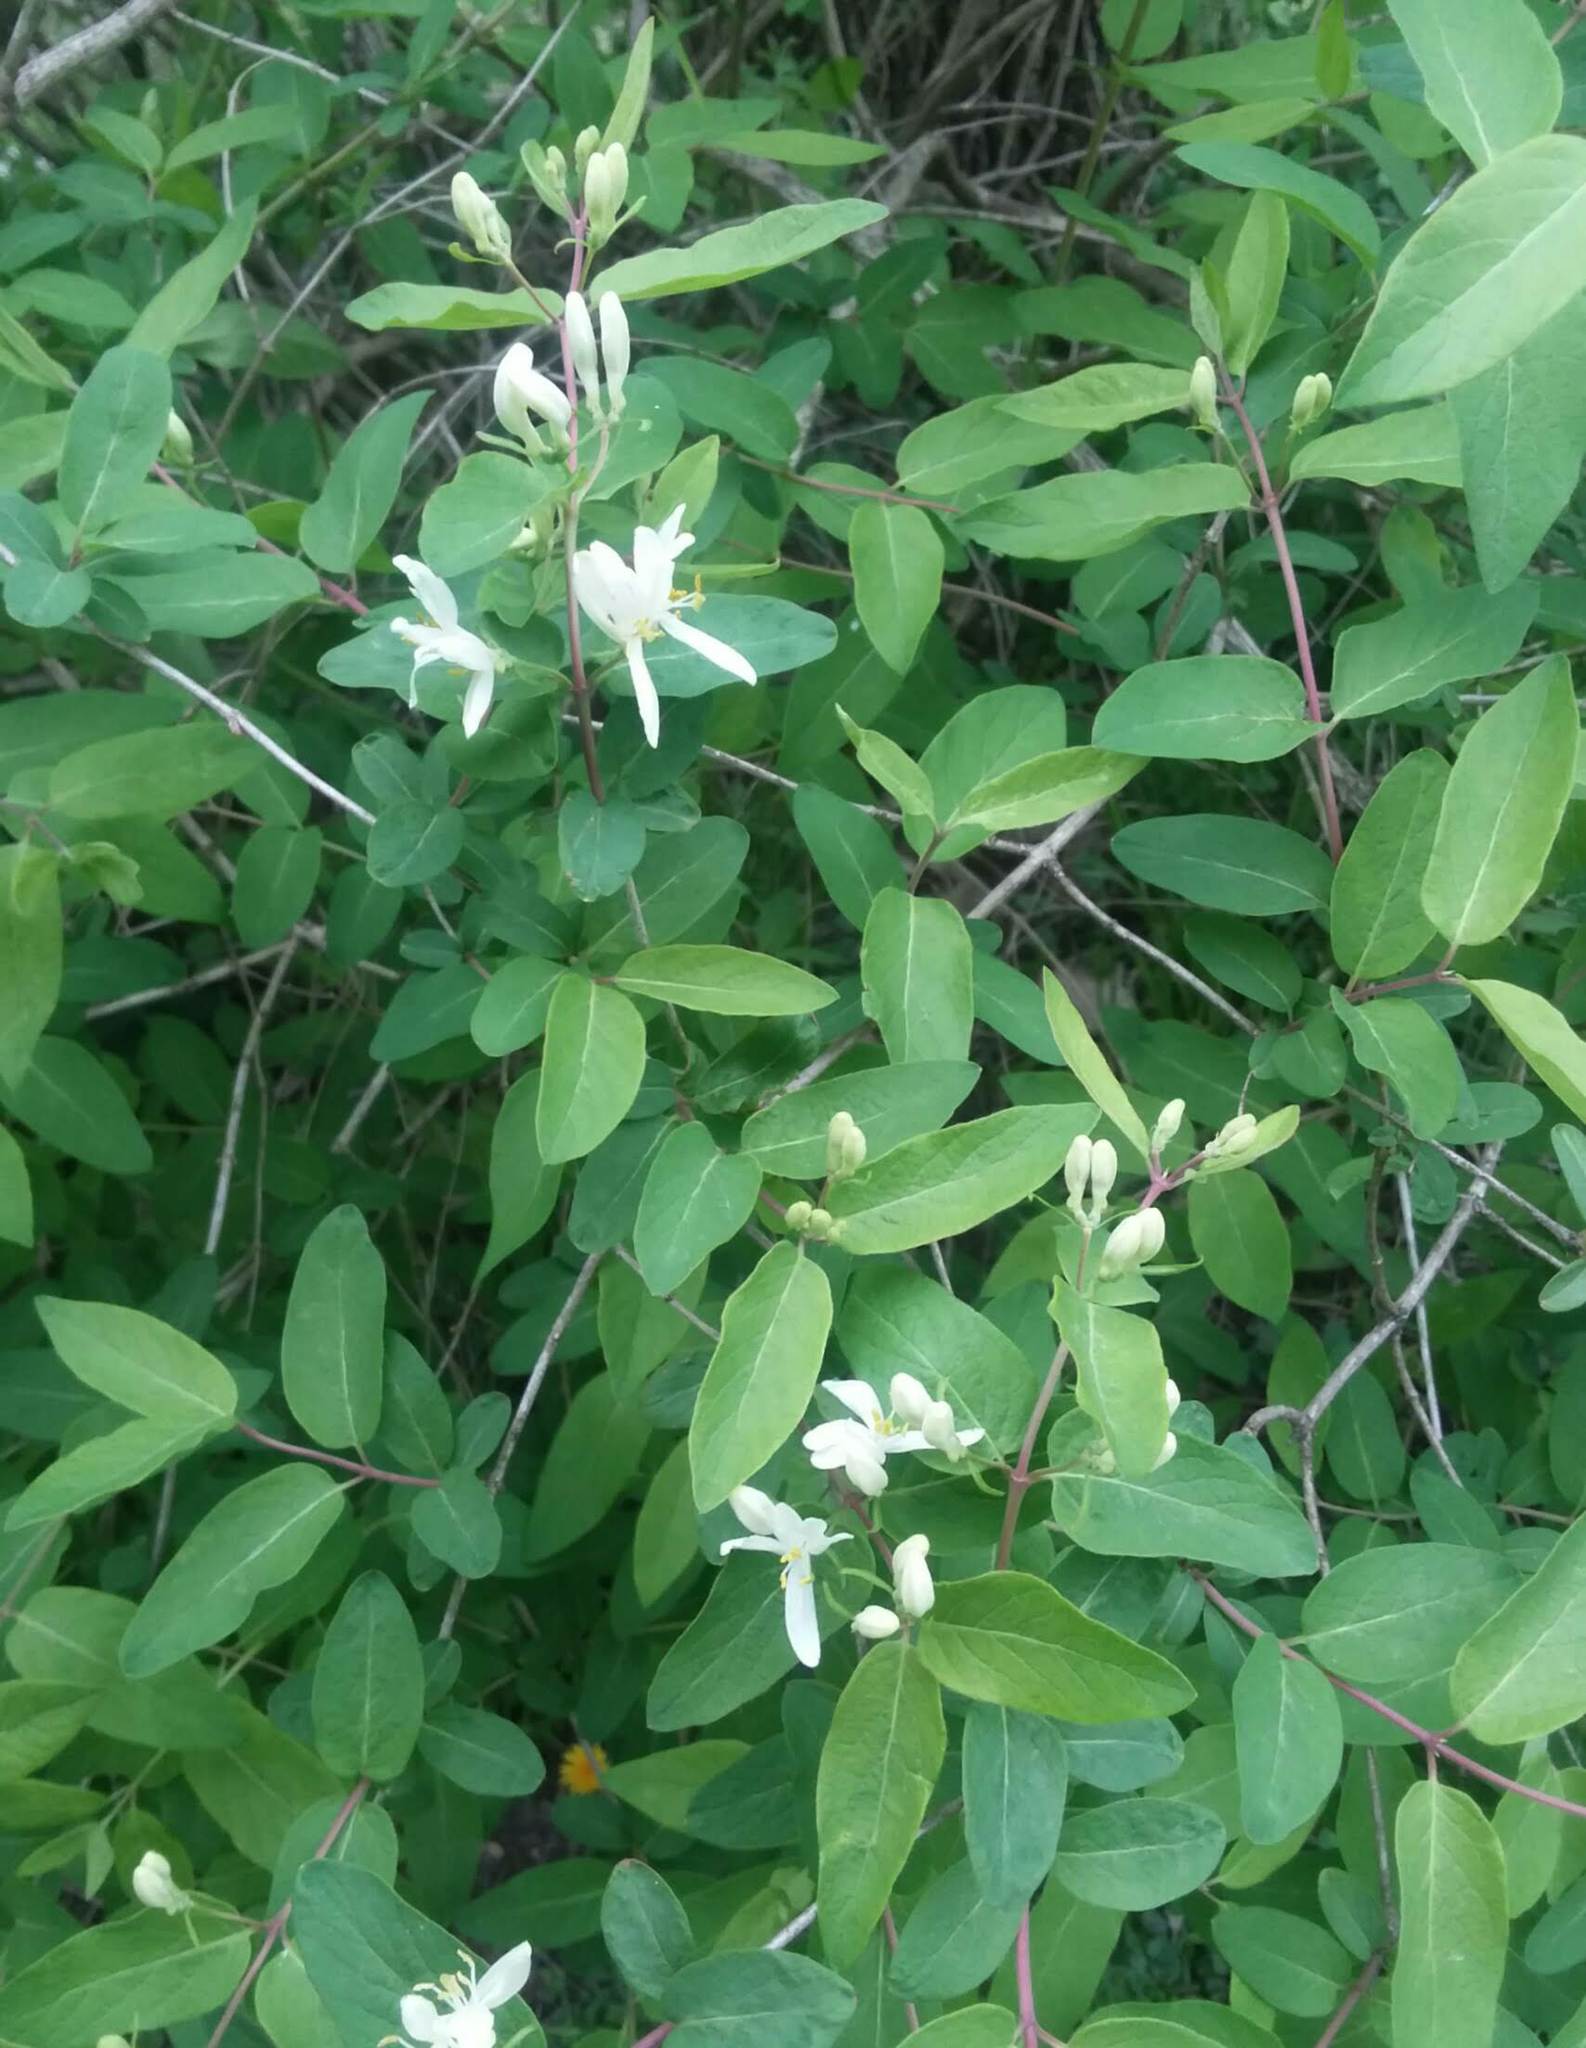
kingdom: Plantae
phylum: Tracheophyta
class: Magnoliopsida
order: Dipsacales
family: Caprifoliaceae
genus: Lonicera
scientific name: Lonicera morrowii
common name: Morrow's honeysuckle
